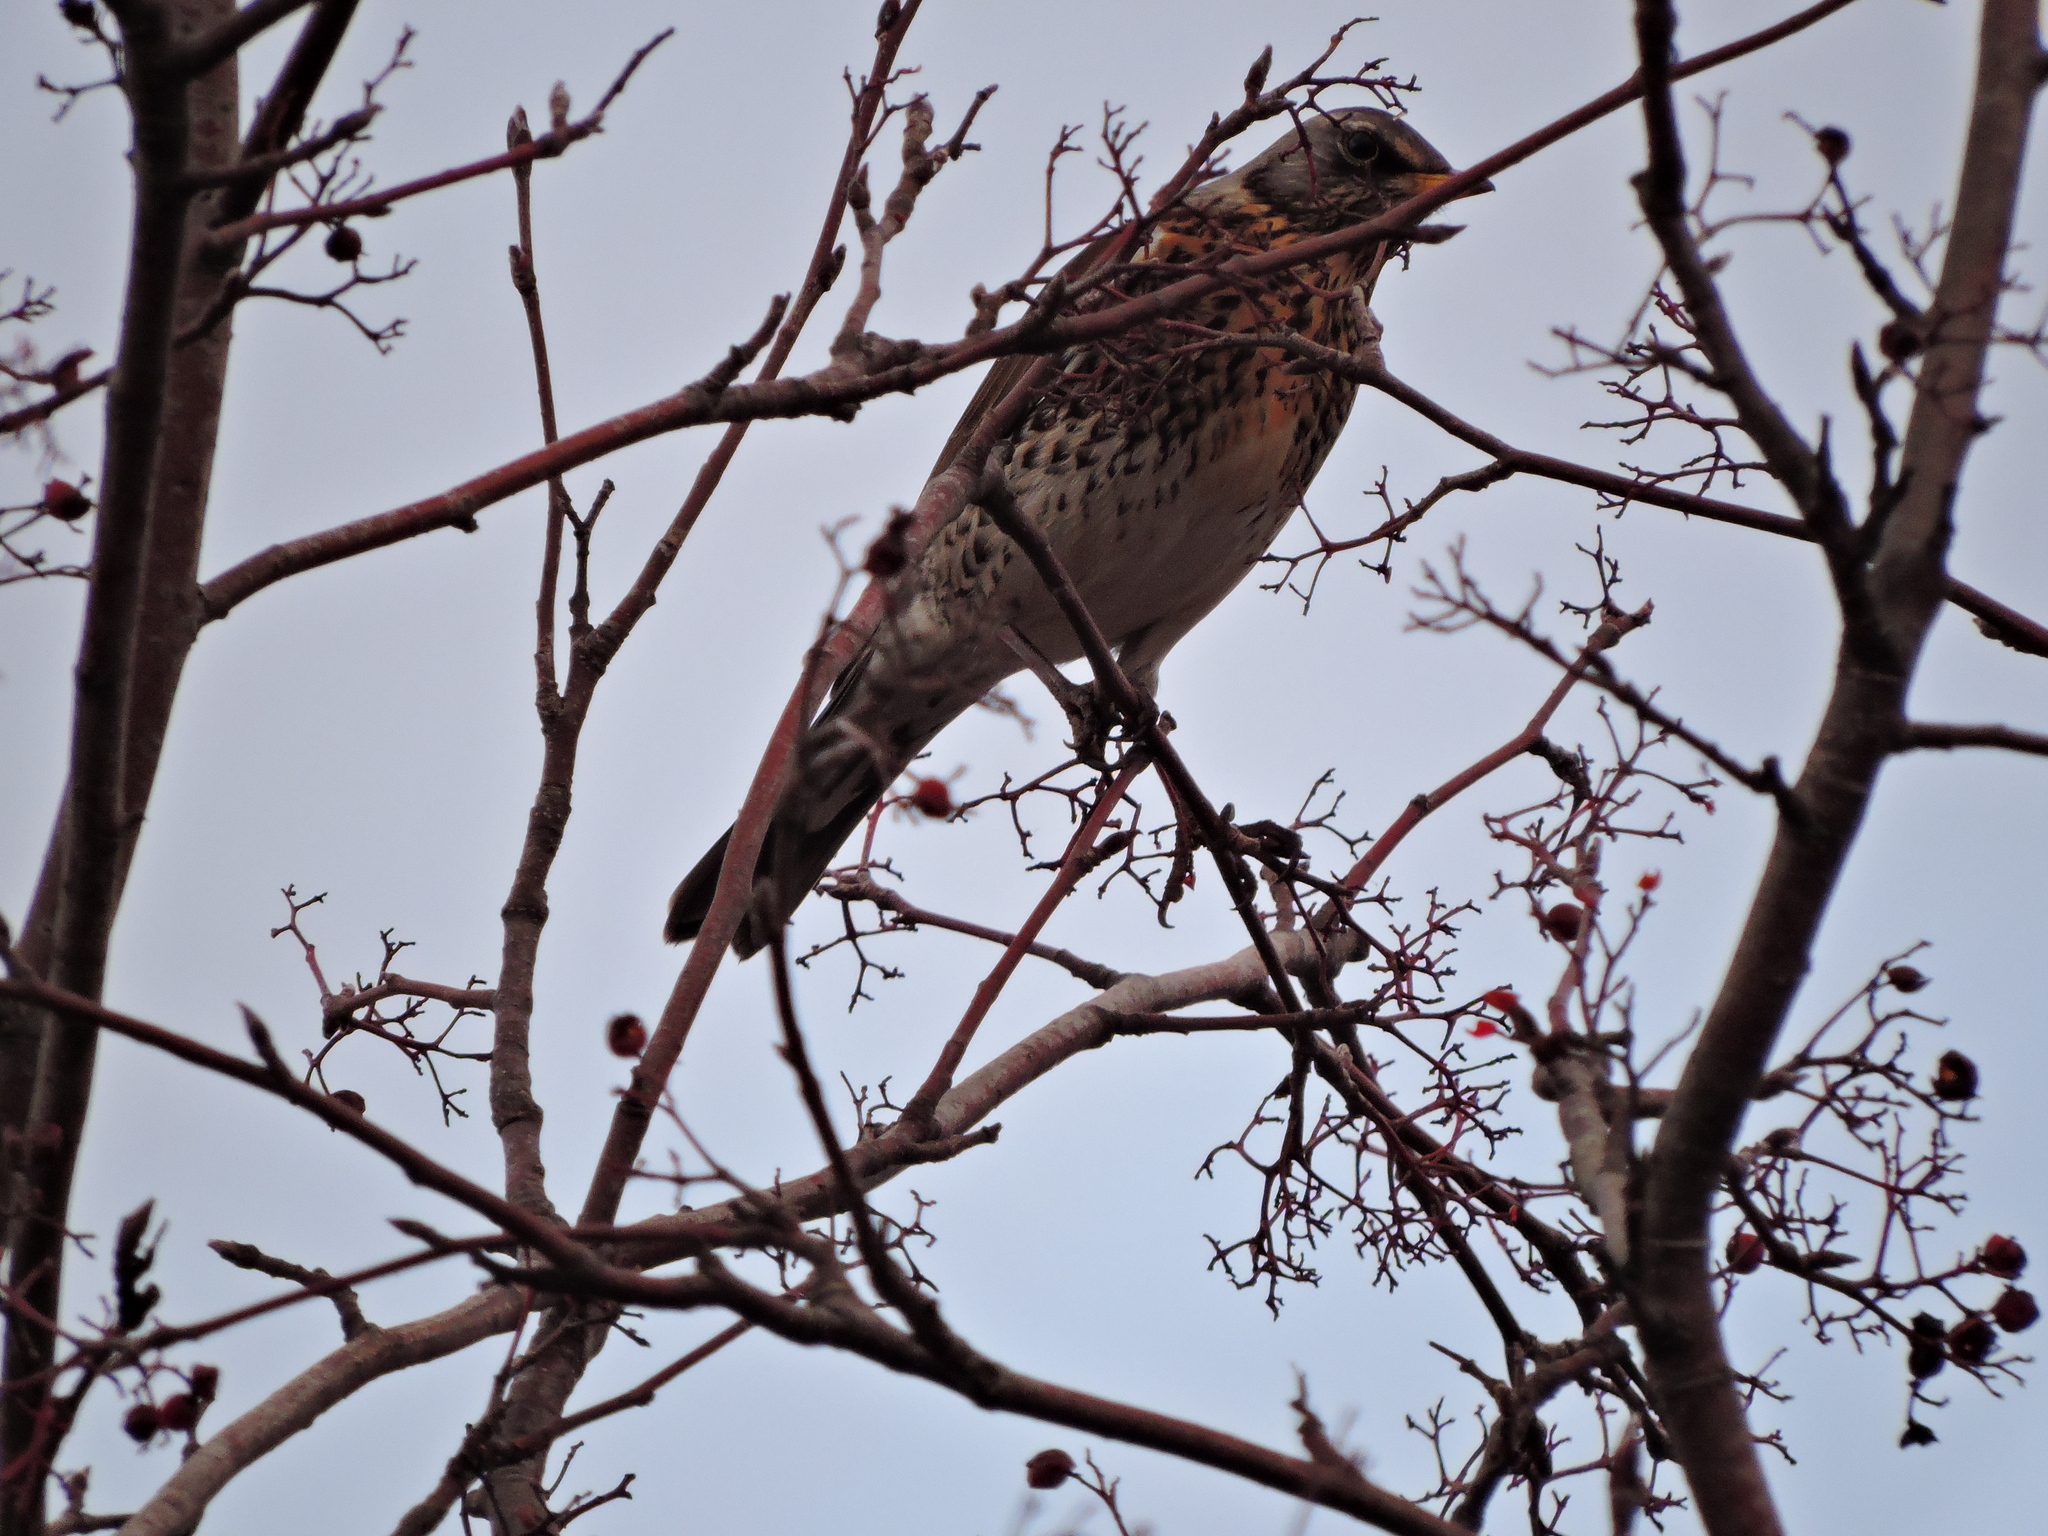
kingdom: Animalia
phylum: Chordata
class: Aves
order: Passeriformes
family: Turdidae
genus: Turdus
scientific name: Turdus pilaris
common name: Fieldfare
